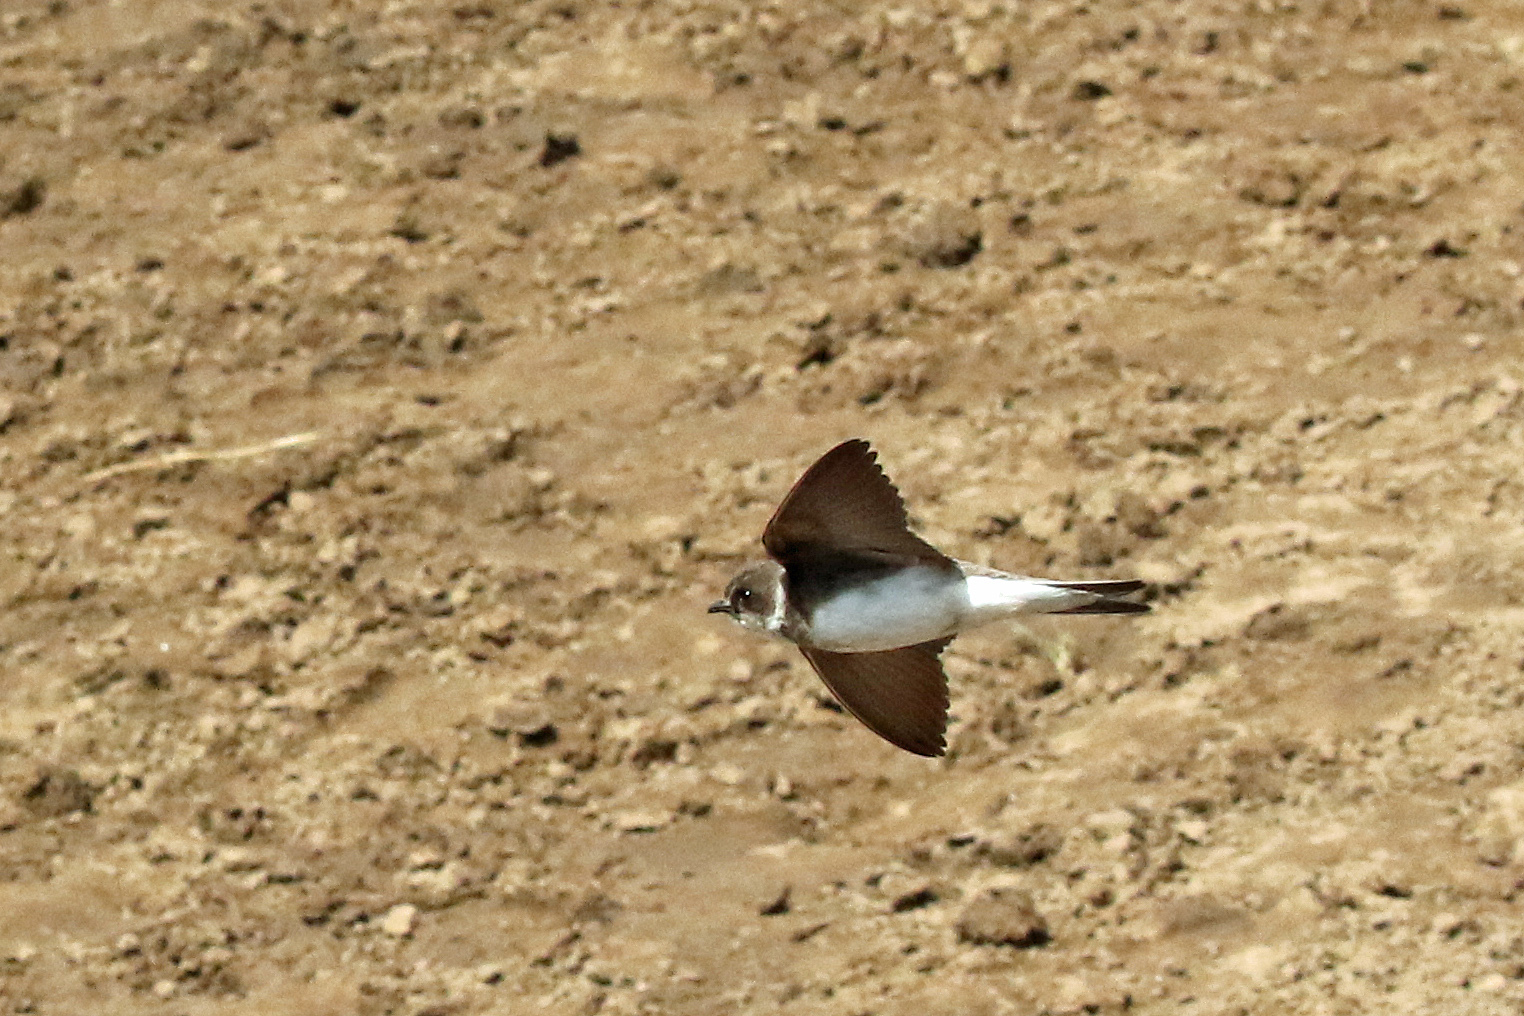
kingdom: Animalia
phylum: Chordata
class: Aves
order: Passeriformes
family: Hirundinidae
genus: Riparia
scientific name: Riparia riparia
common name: Sand martin
